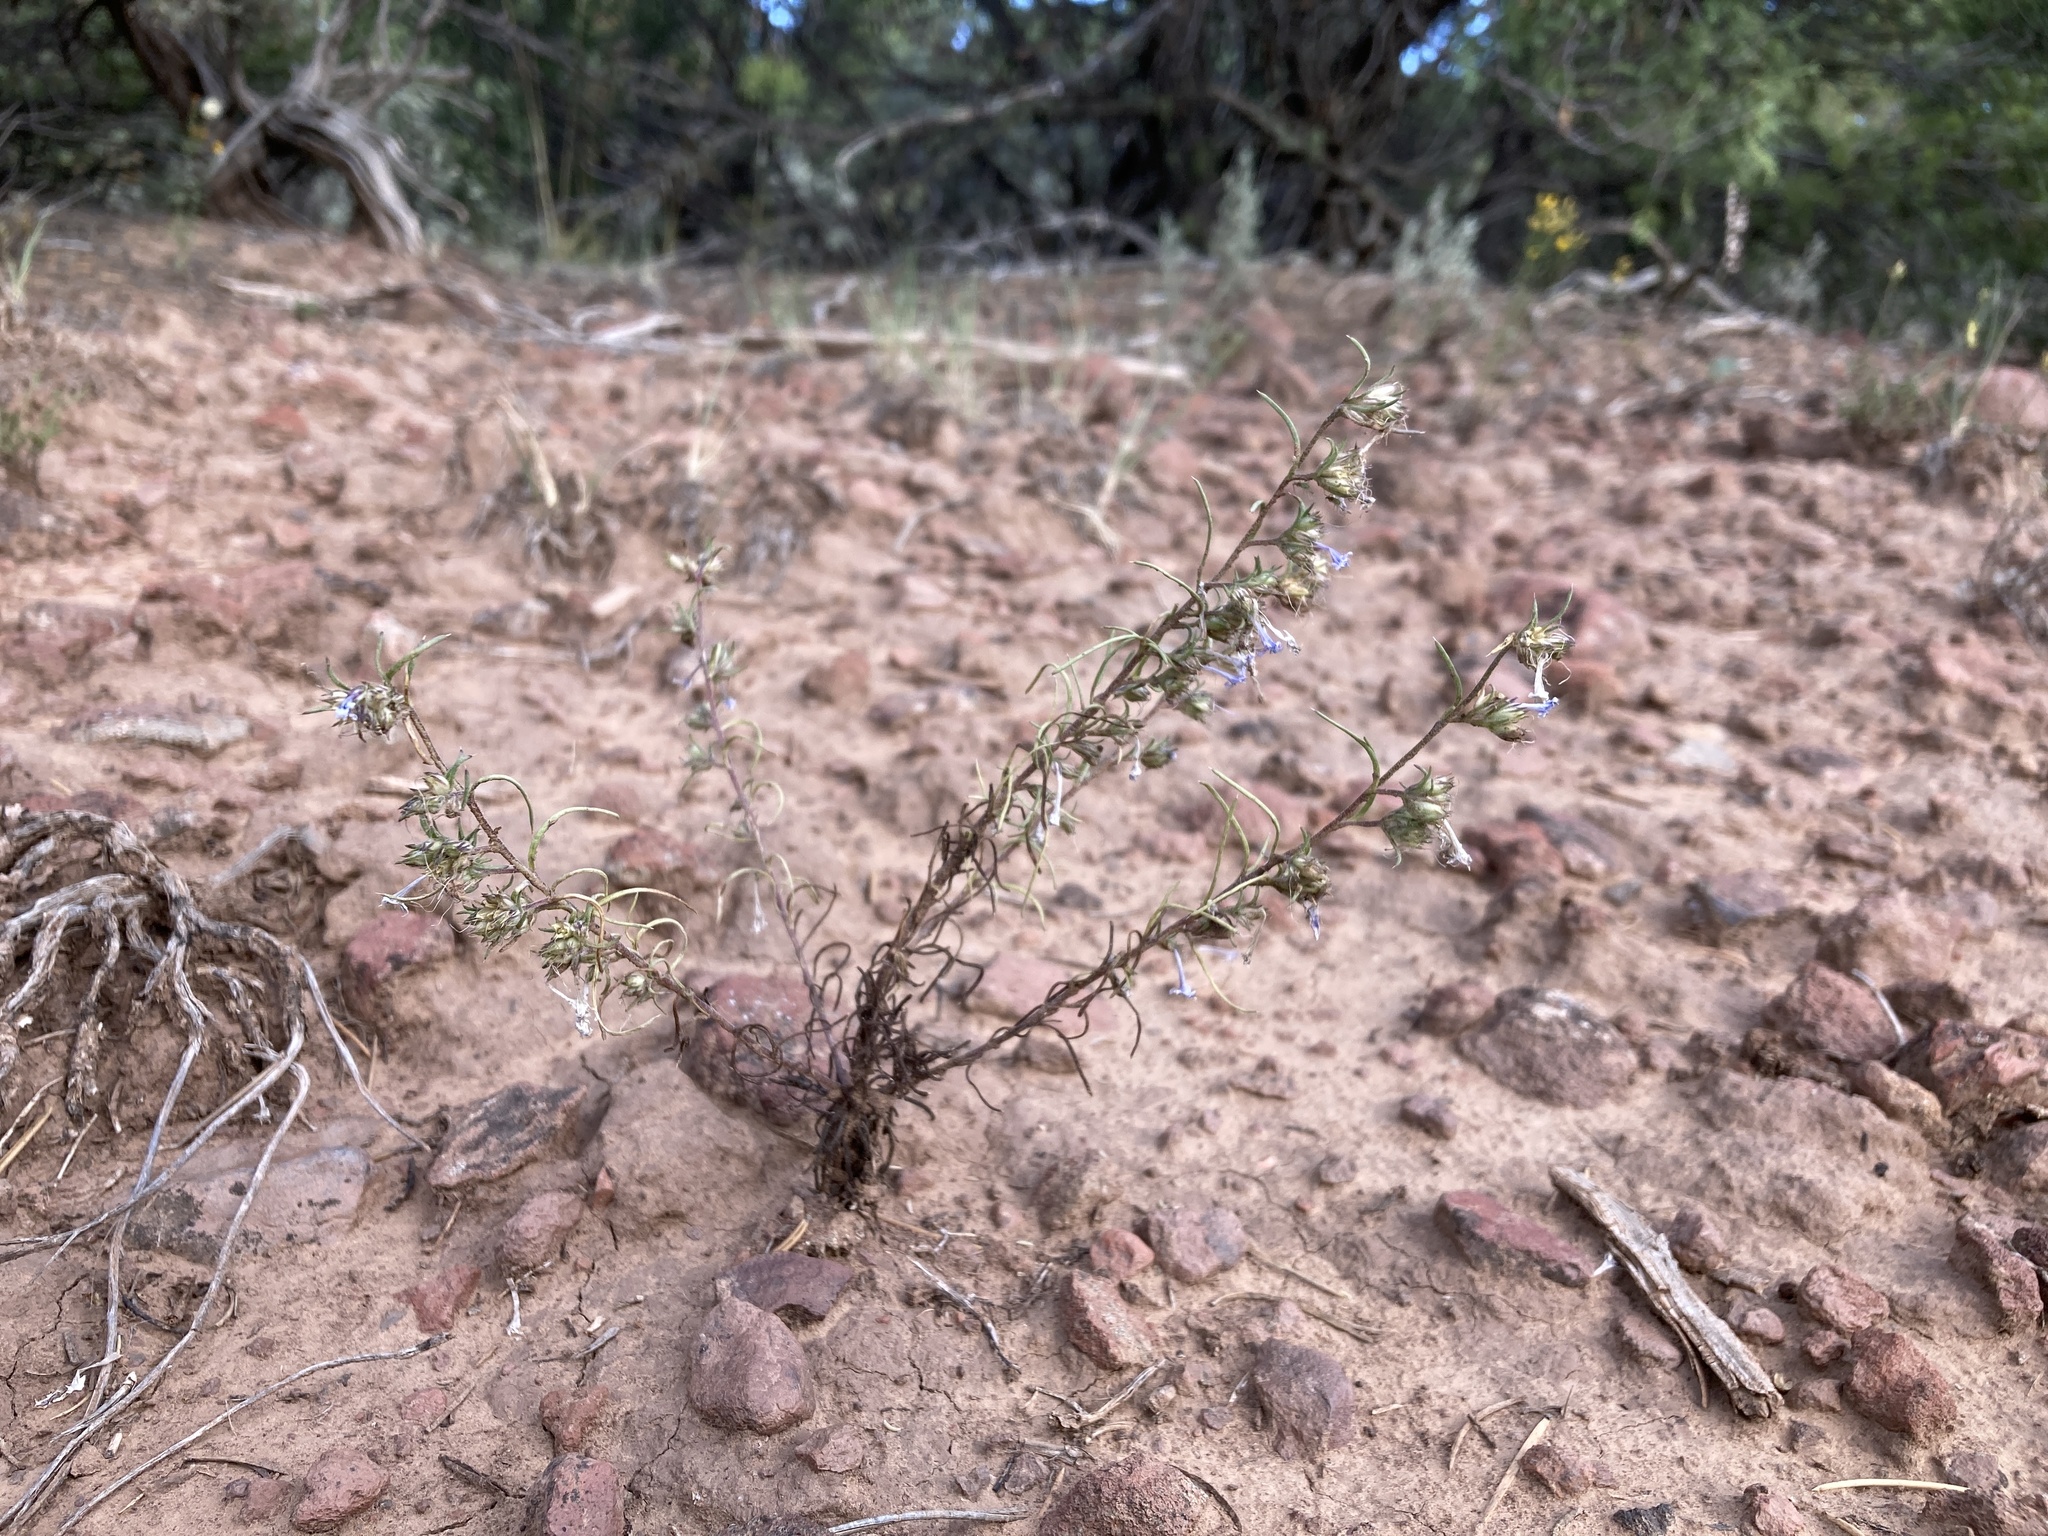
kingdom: Plantae
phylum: Tracheophyta
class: Magnoliopsida
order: Ericales
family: Polemoniaceae
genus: Ipomopsis
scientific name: Ipomopsis multiflora
